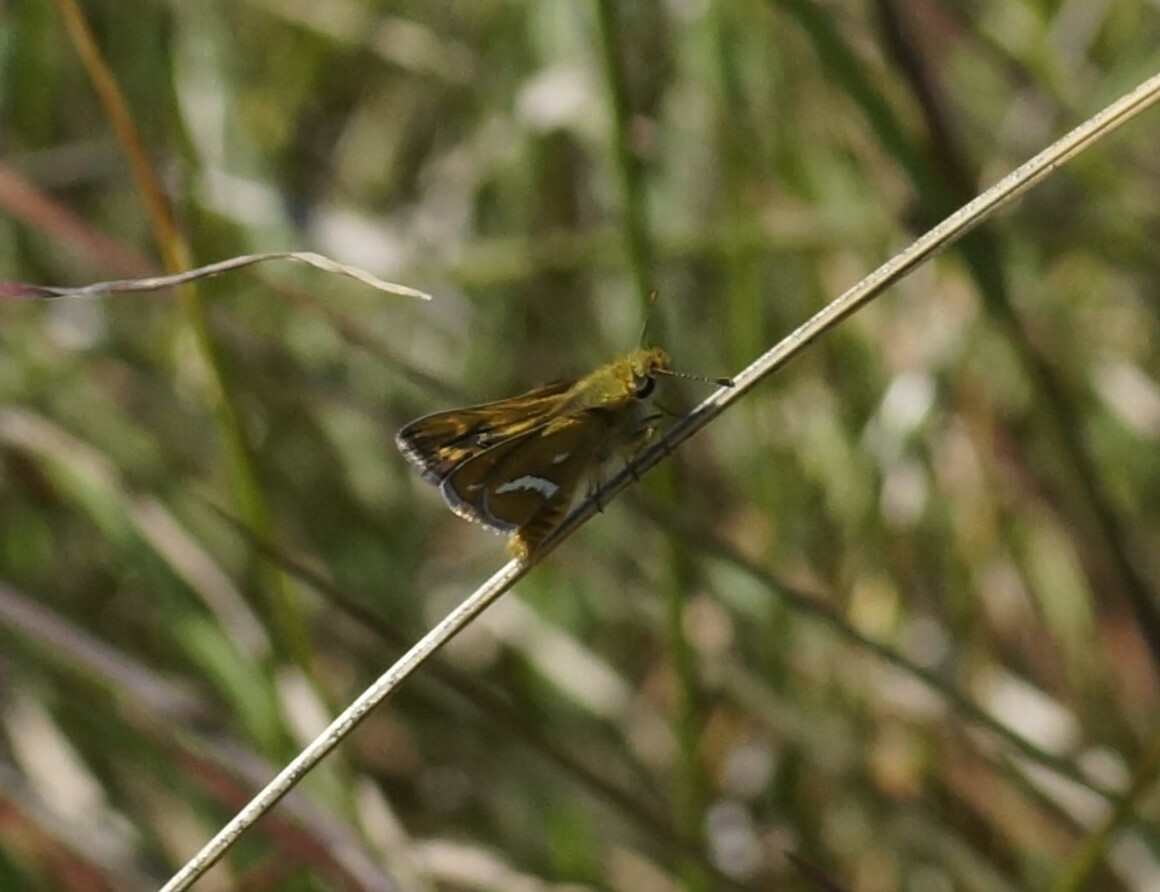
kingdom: Animalia
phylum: Arthropoda
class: Insecta
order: Lepidoptera
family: Hesperiidae
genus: Taractrocera
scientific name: Taractrocera papyria
